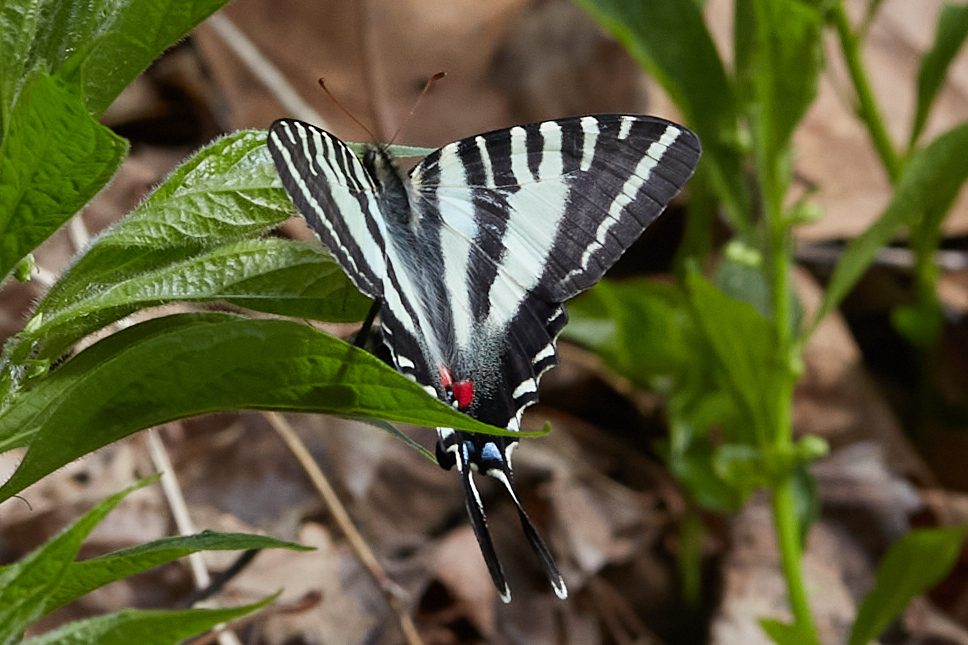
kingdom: Animalia
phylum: Arthropoda
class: Insecta
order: Lepidoptera
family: Papilionidae
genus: Protographium
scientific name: Protographium marcellus
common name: Zebra swallowtail
